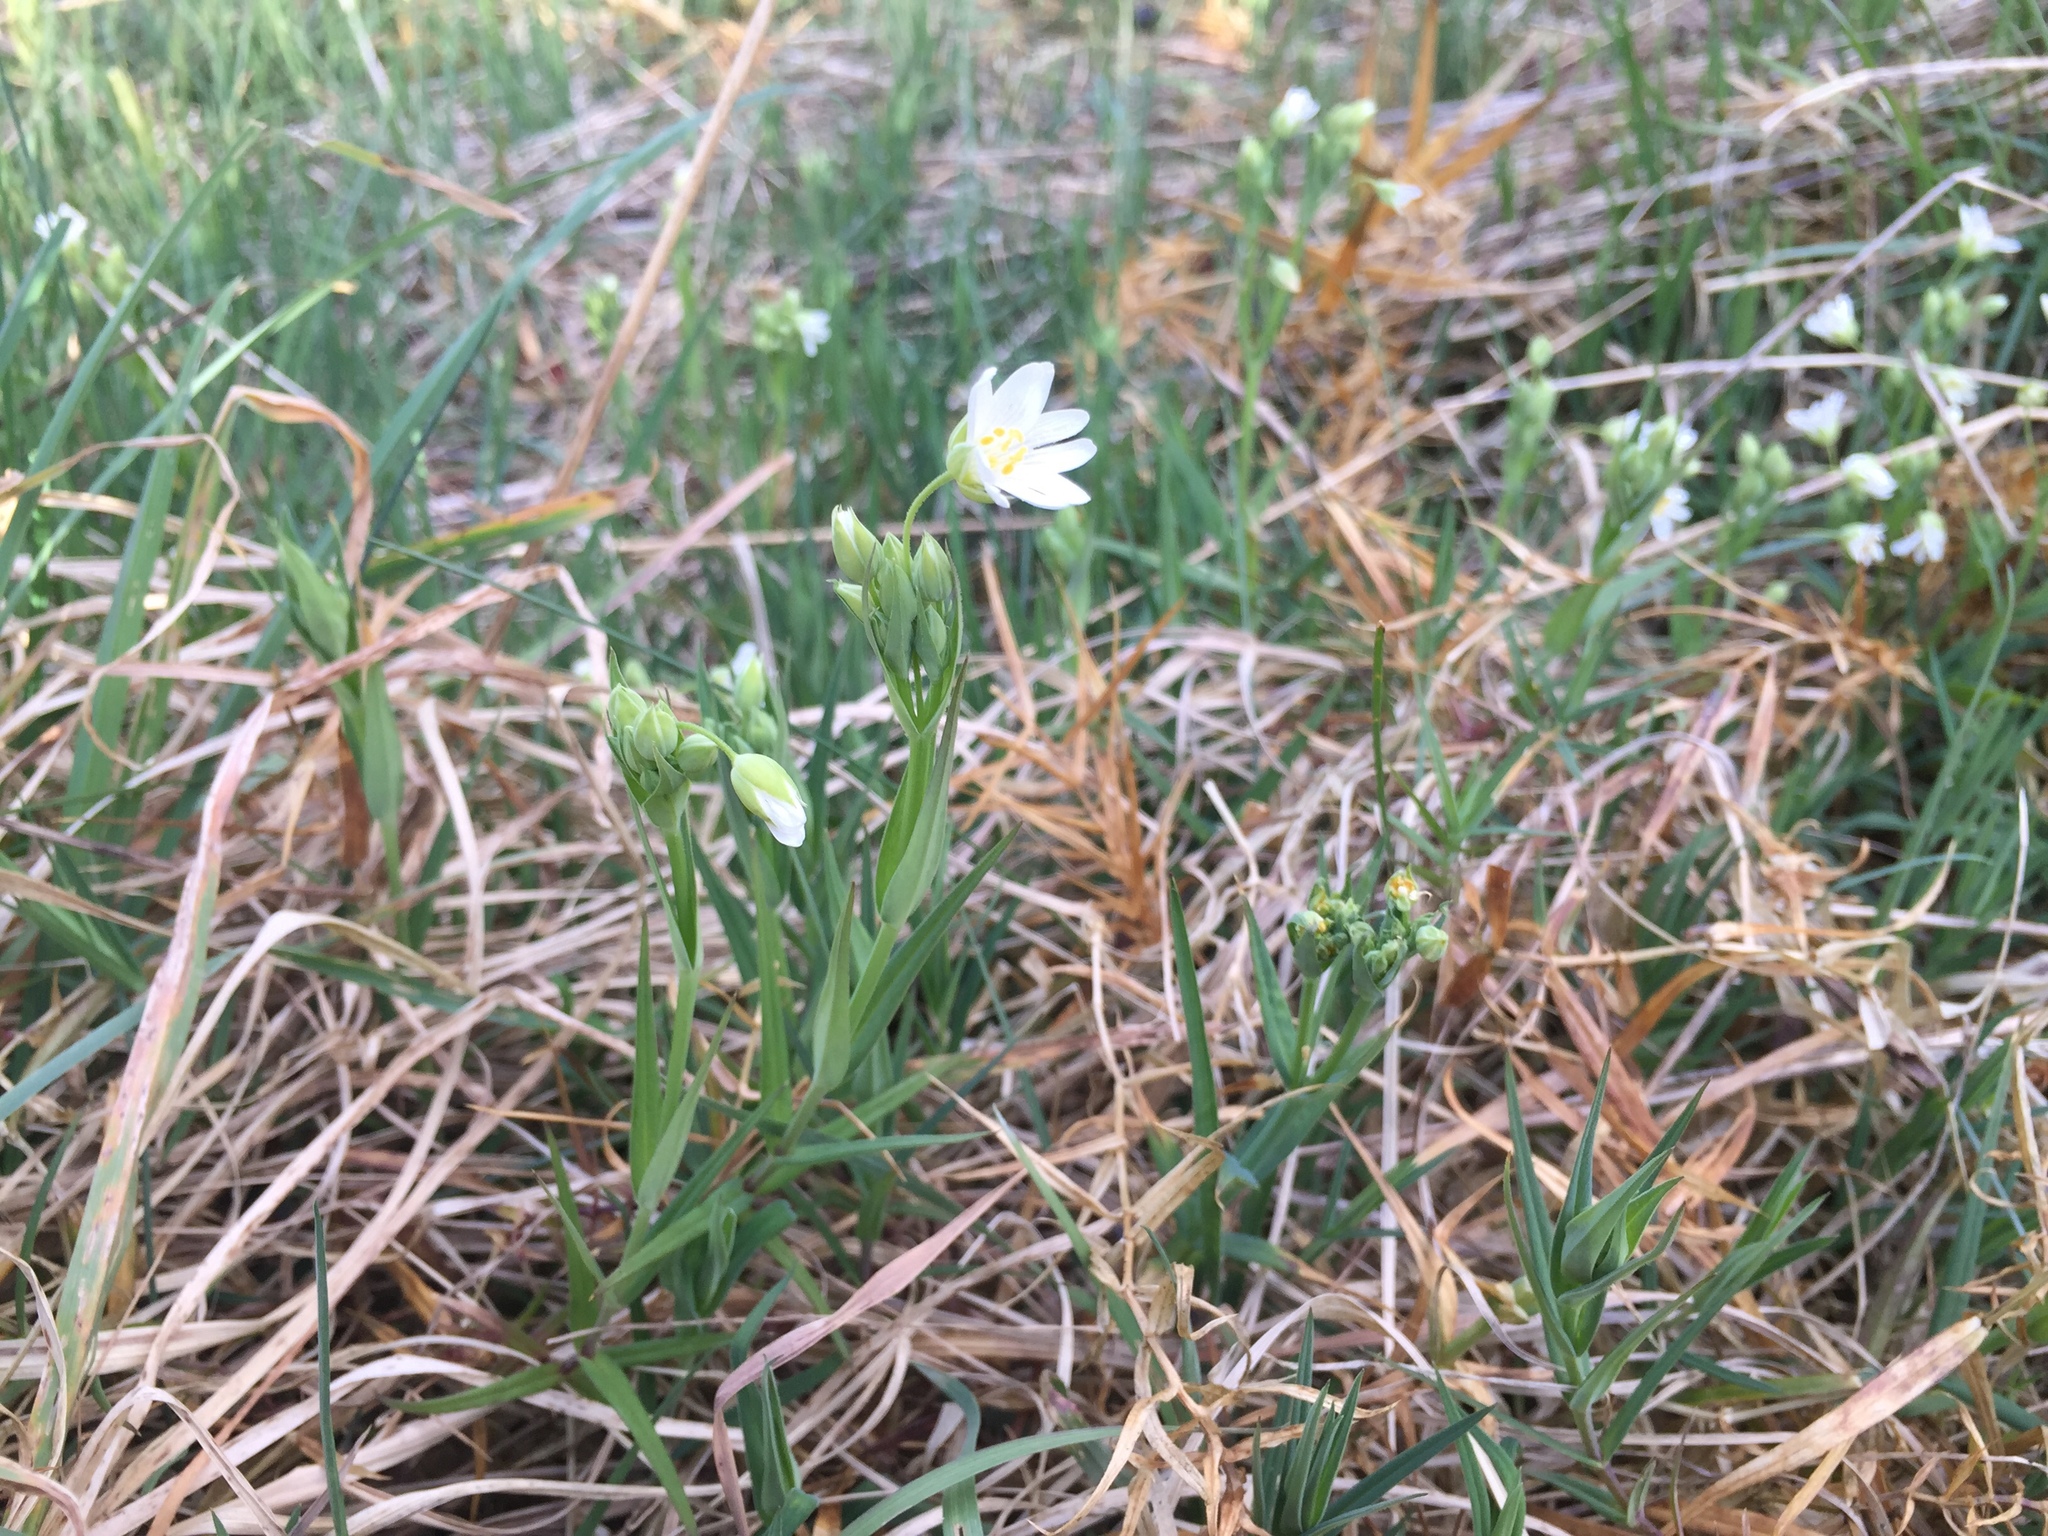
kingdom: Plantae
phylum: Tracheophyta
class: Magnoliopsida
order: Caryophyllales
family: Caryophyllaceae
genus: Rabelera
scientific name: Rabelera holostea
